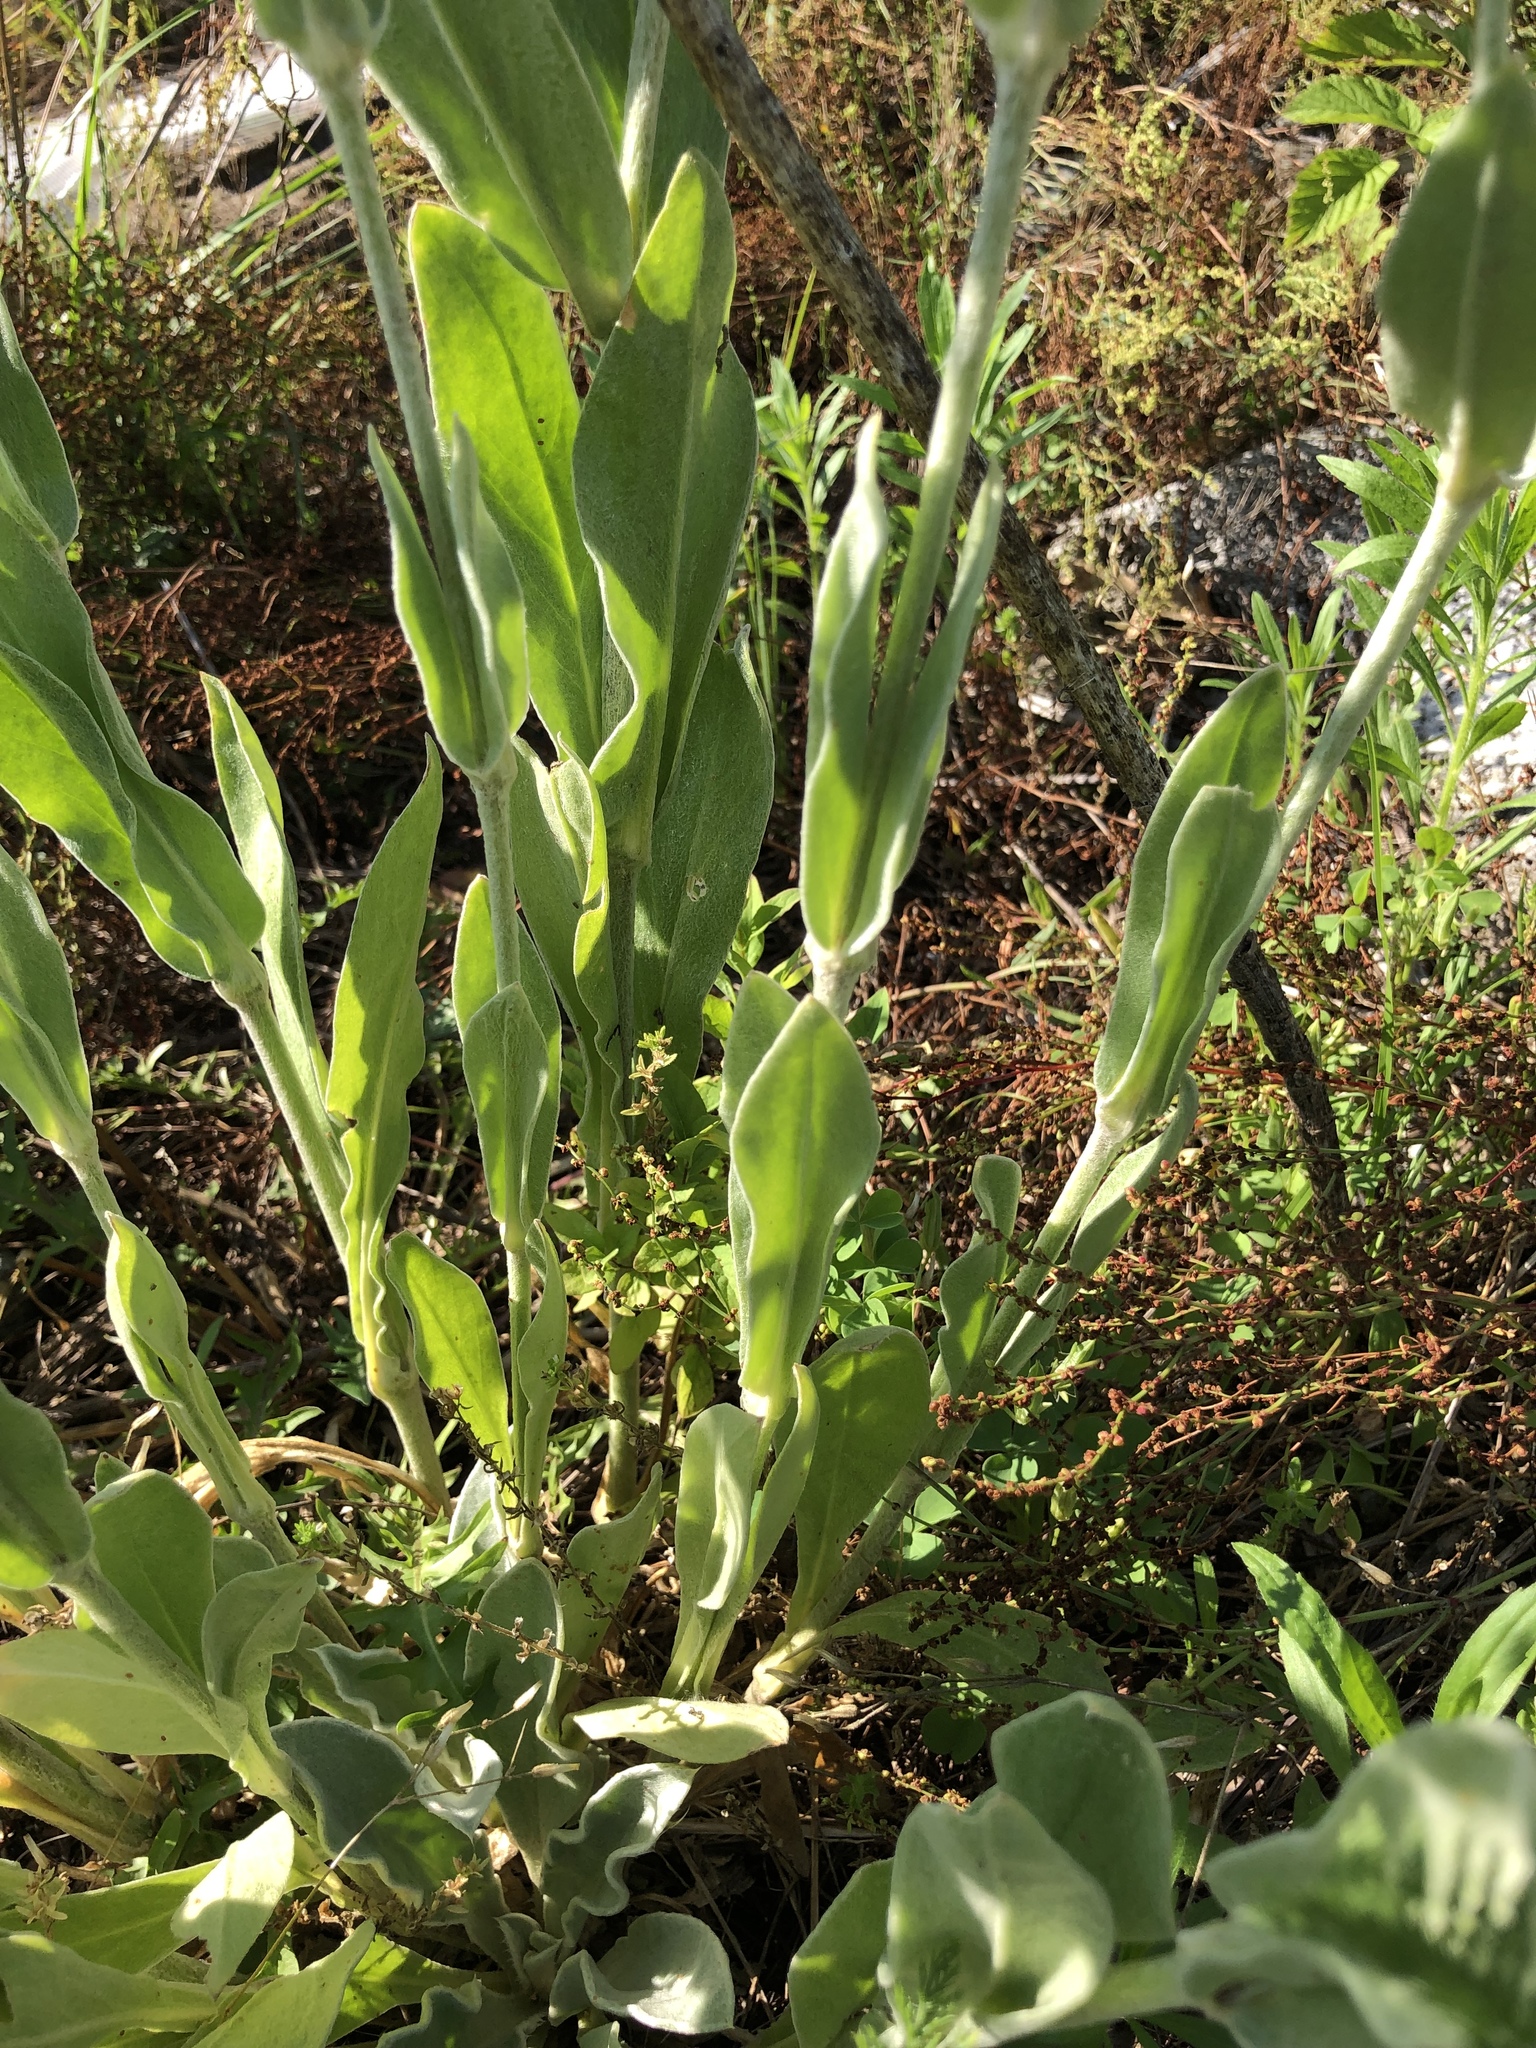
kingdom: Plantae
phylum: Tracheophyta
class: Magnoliopsida
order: Caryophyllales
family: Caryophyllaceae
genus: Silene
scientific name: Silene coronaria
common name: Rose campion
